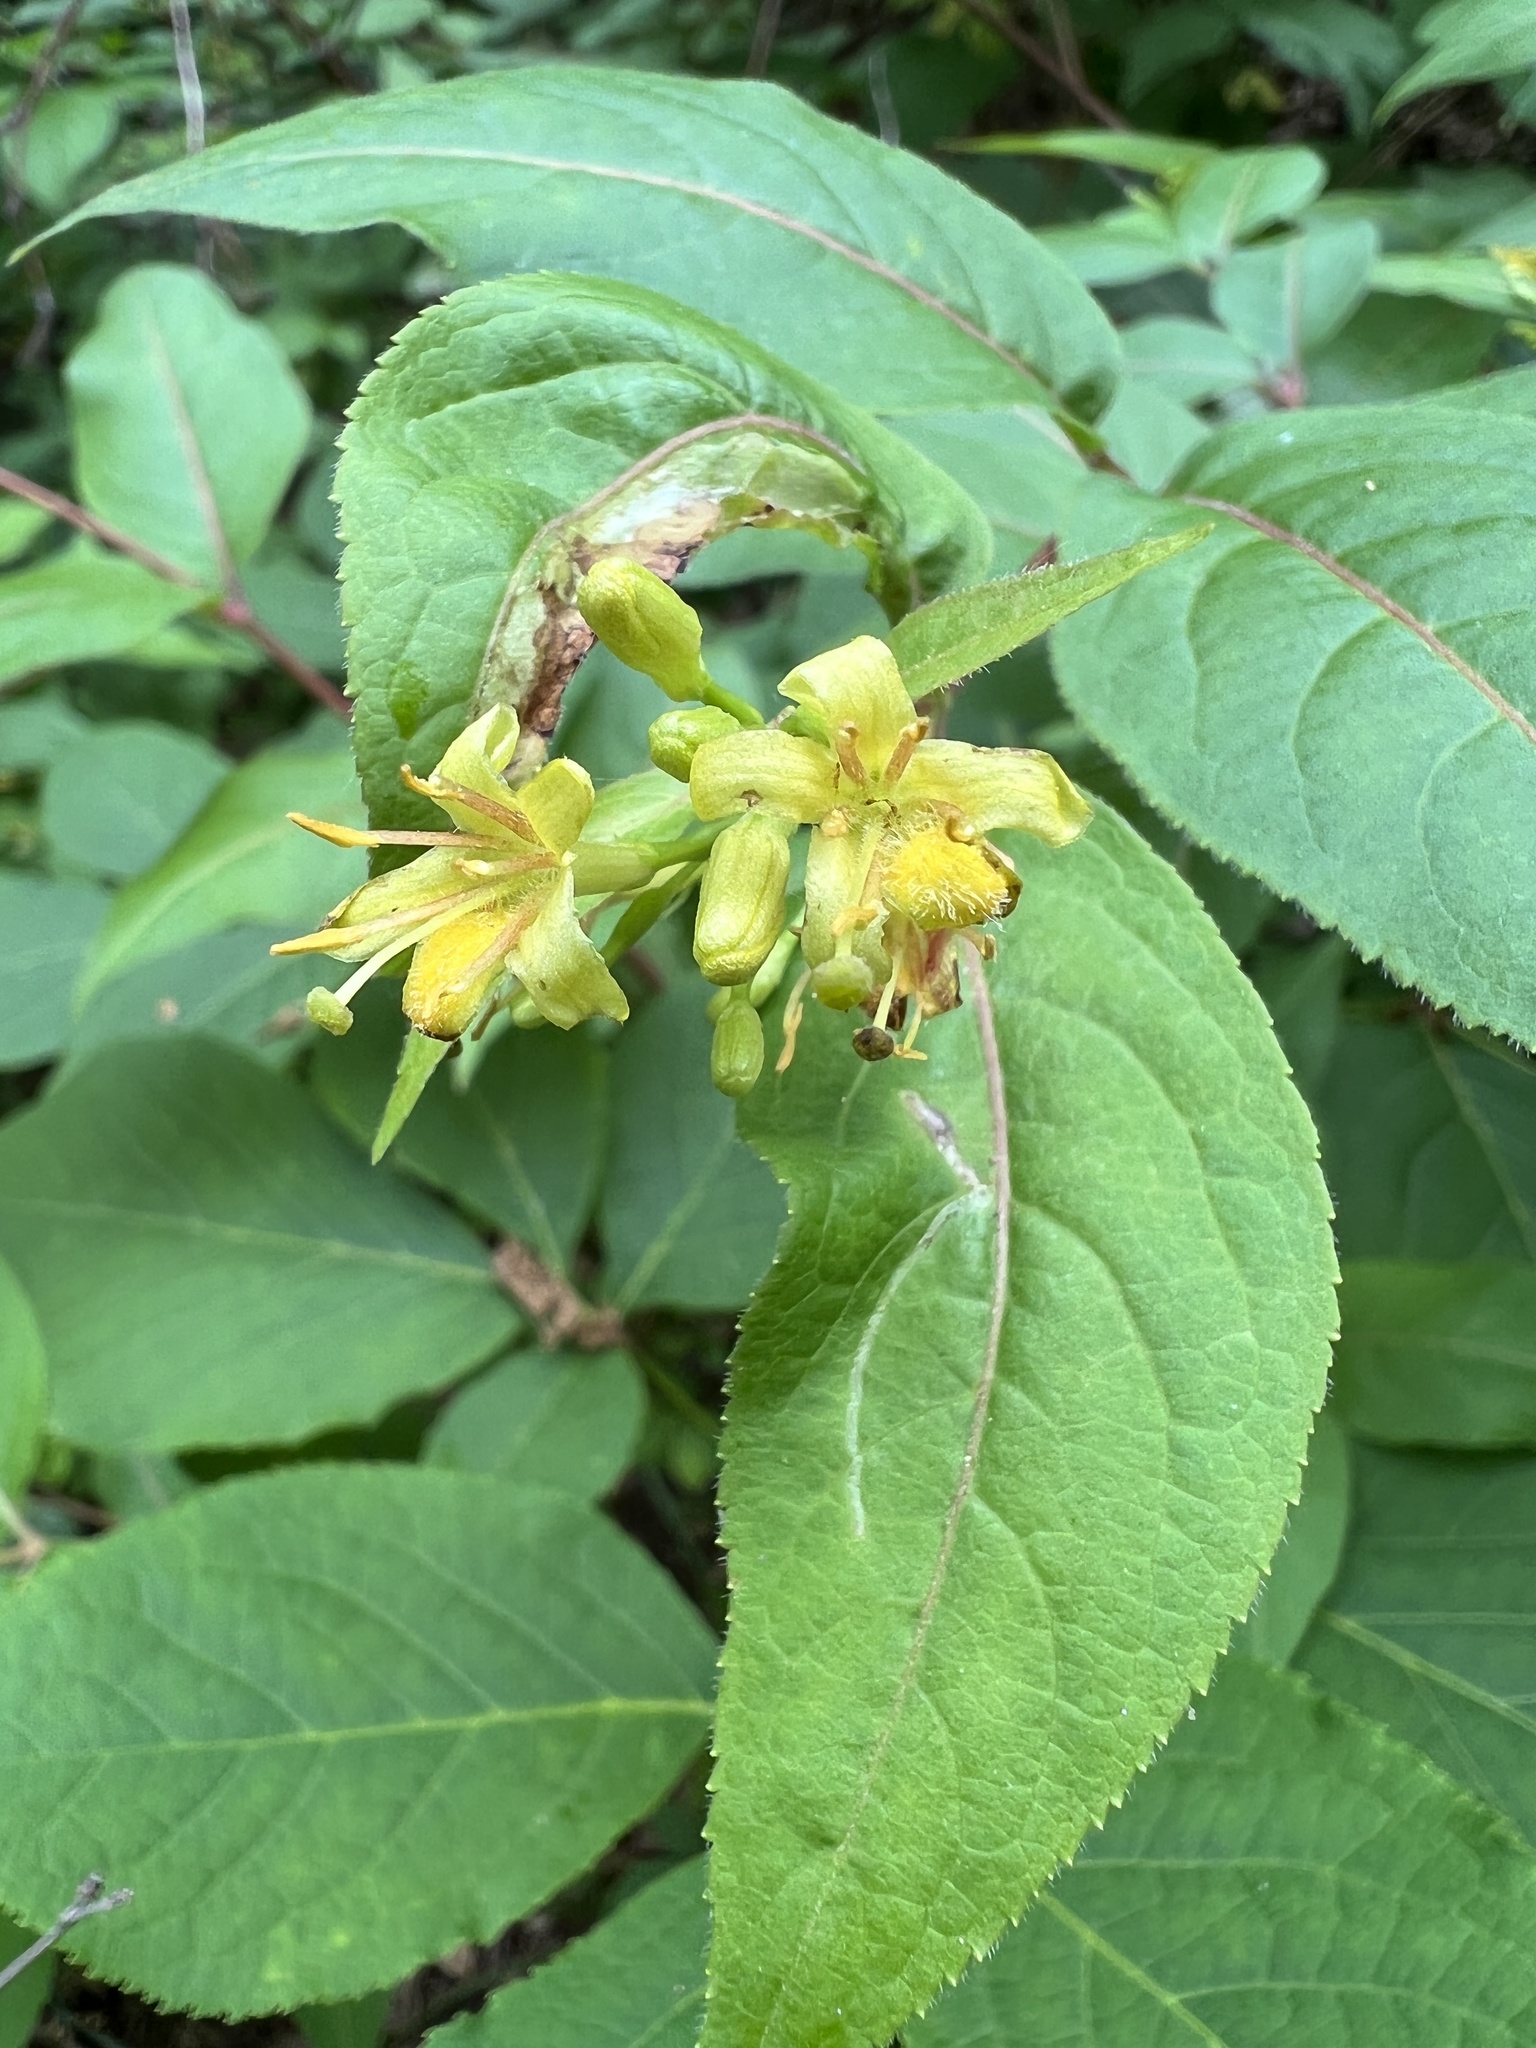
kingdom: Plantae
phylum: Tracheophyta
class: Magnoliopsida
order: Dipsacales
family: Caprifoliaceae
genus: Diervilla
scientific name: Diervilla lonicera
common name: Bush-honeysuckle
